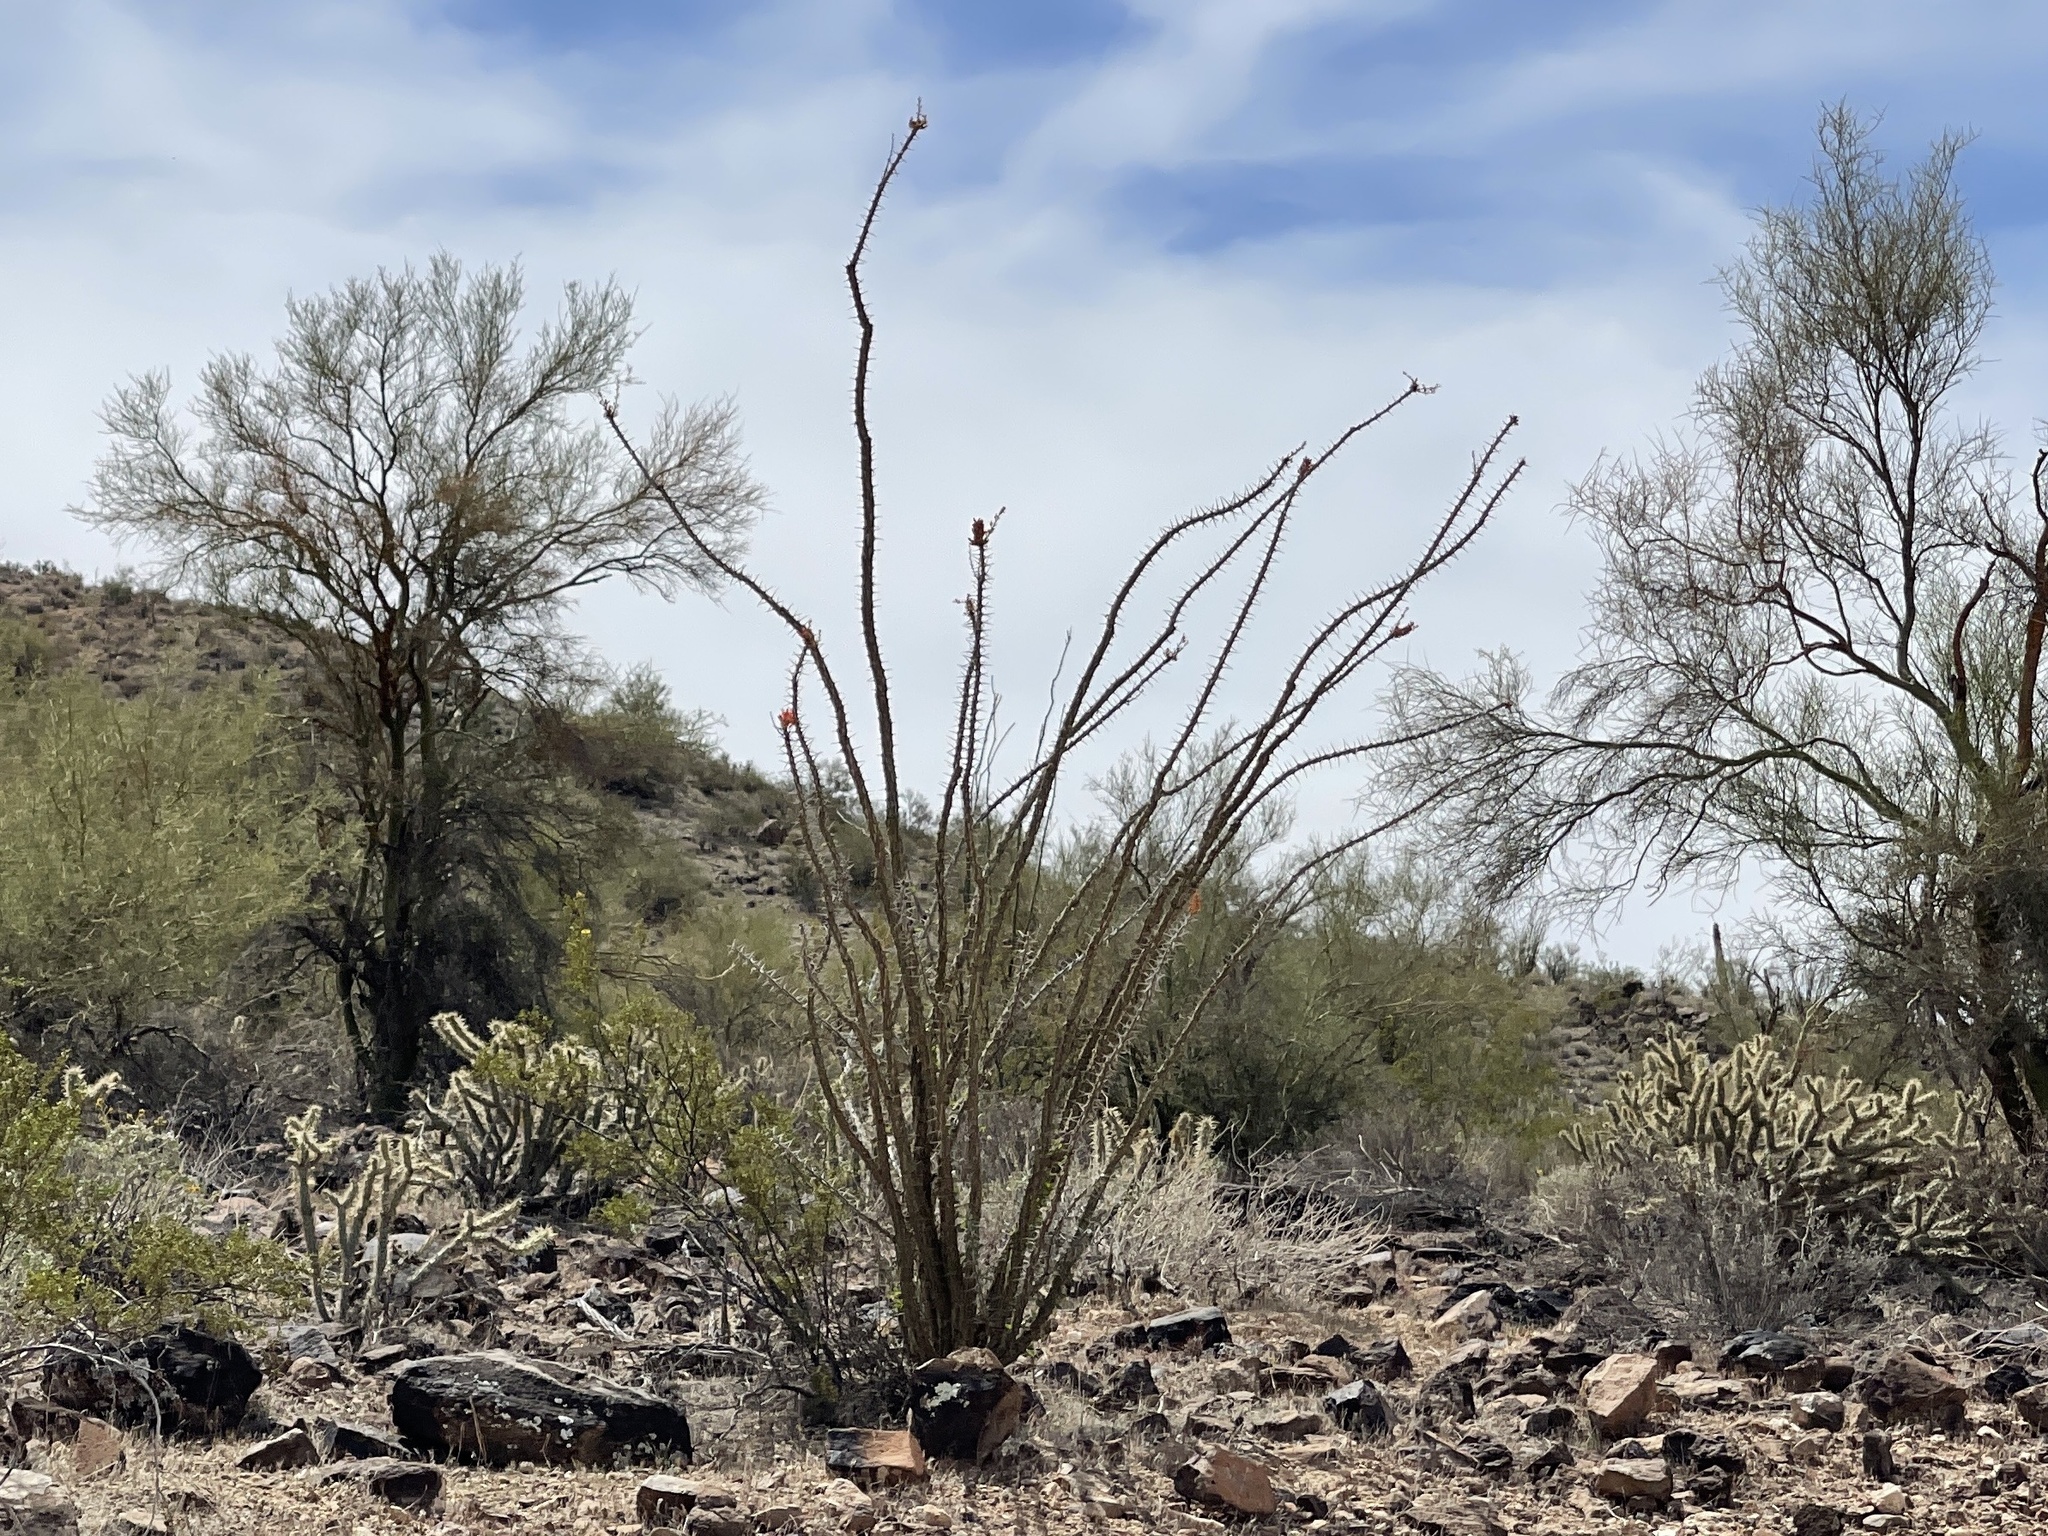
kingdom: Plantae
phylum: Tracheophyta
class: Magnoliopsida
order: Ericales
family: Fouquieriaceae
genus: Fouquieria
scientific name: Fouquieria splendens
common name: Vine-cactus
